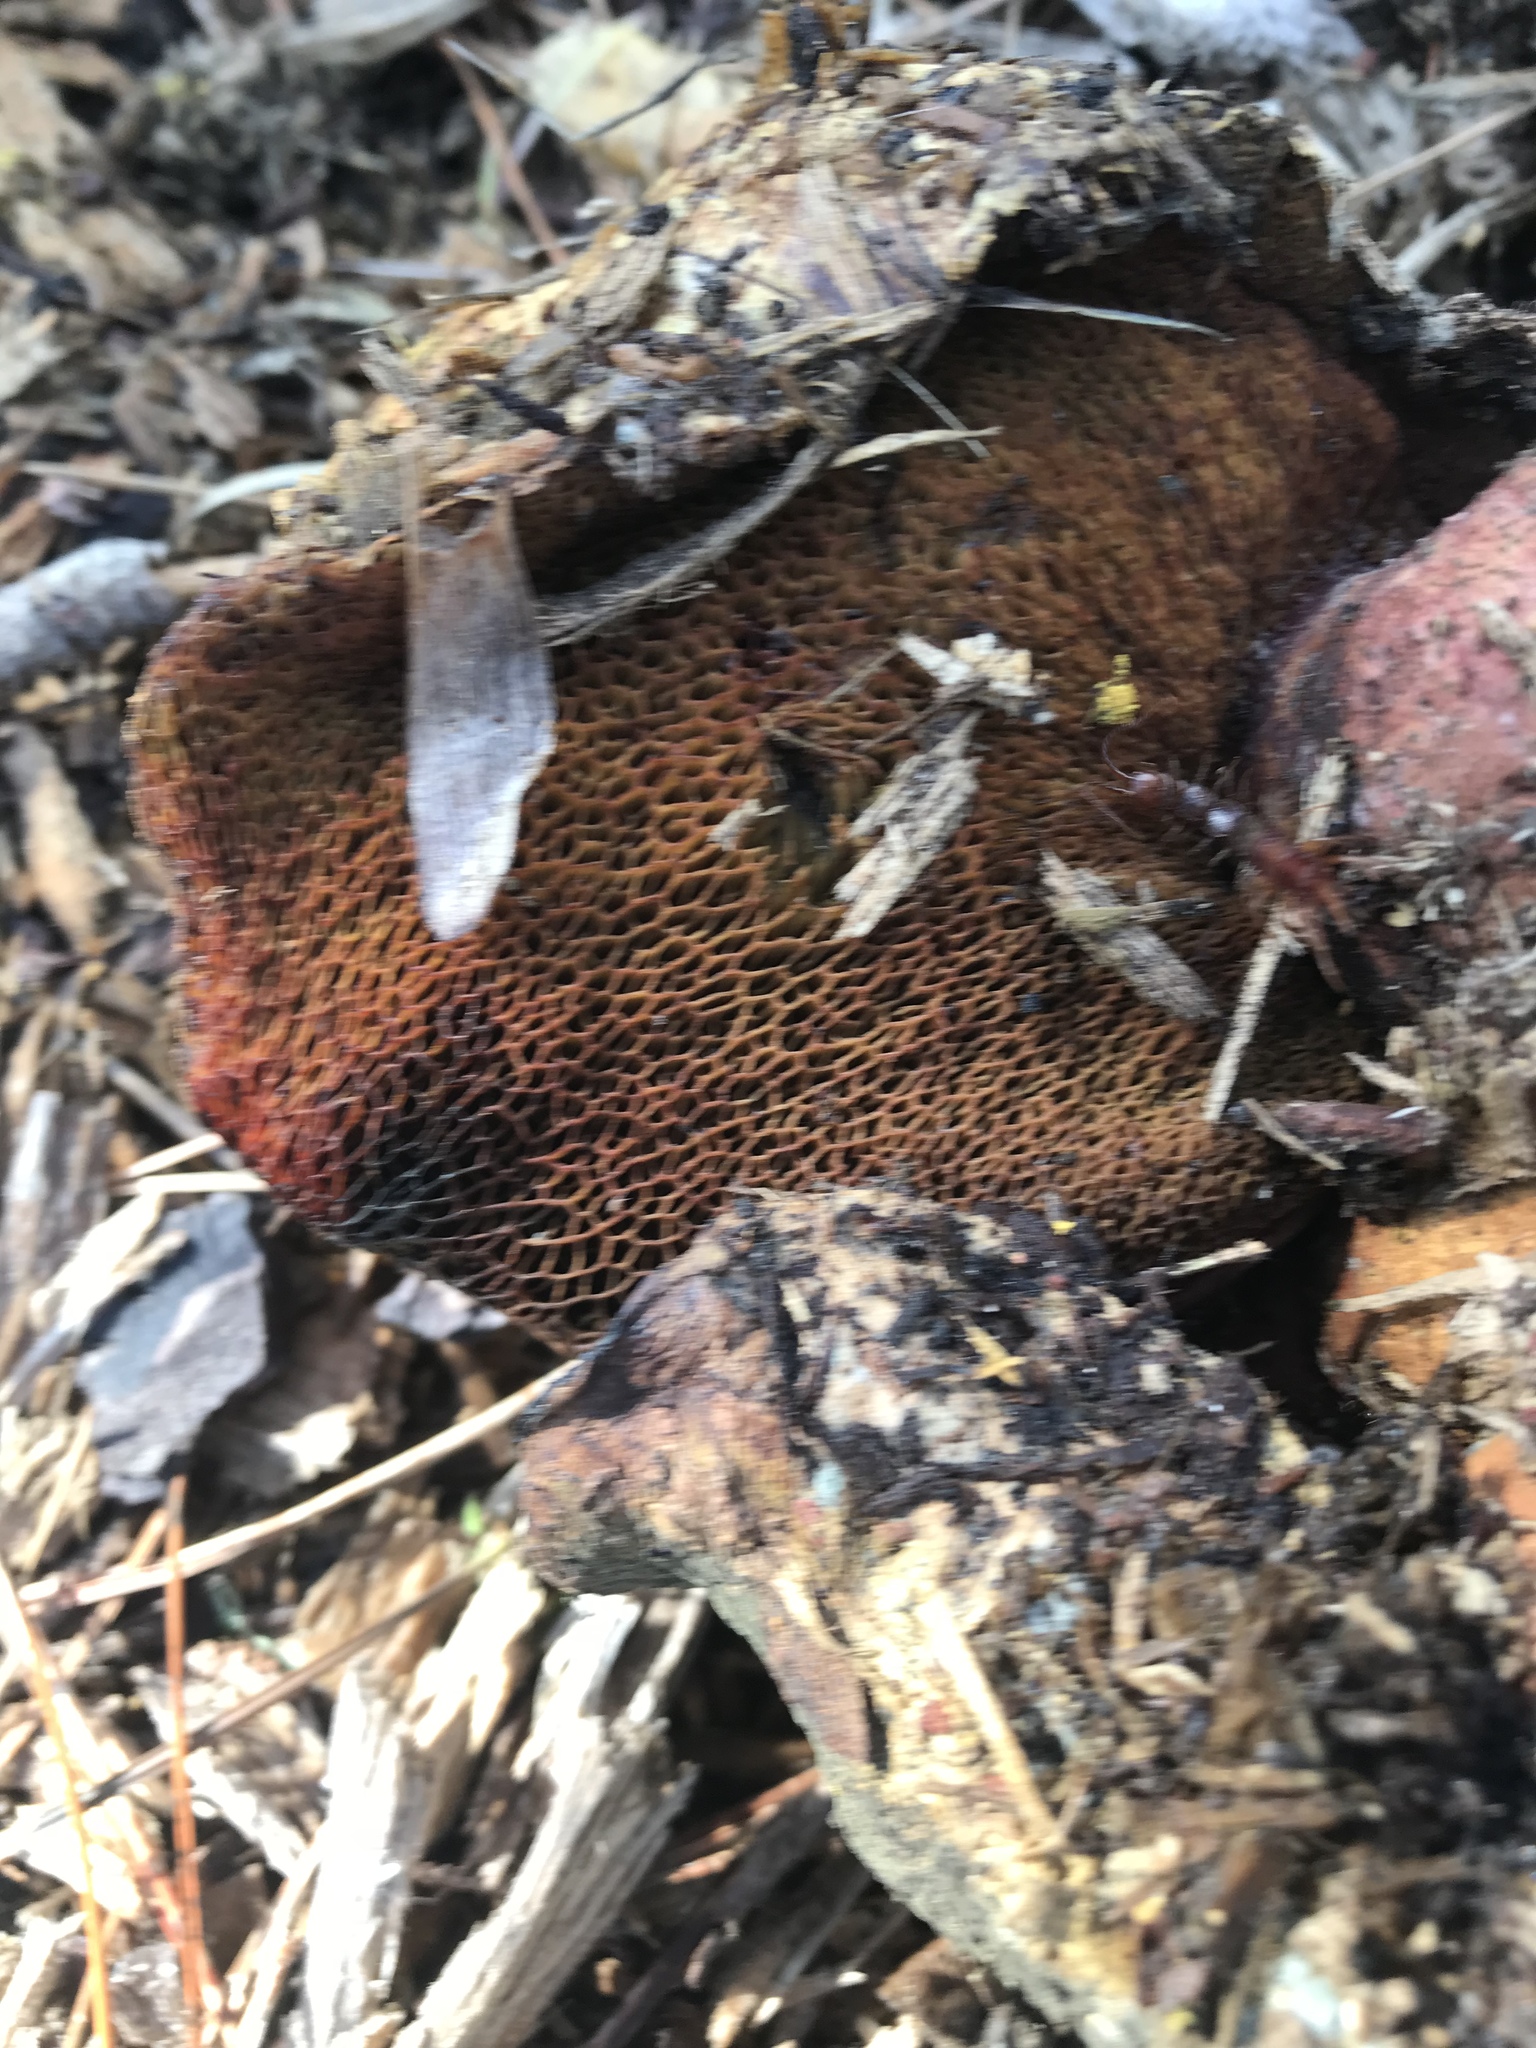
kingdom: Fungi
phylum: Basidiomycota
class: Agaricomycetes
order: Boletales
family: Boletaceae
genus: Boletus
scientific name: Boletus orovillus
